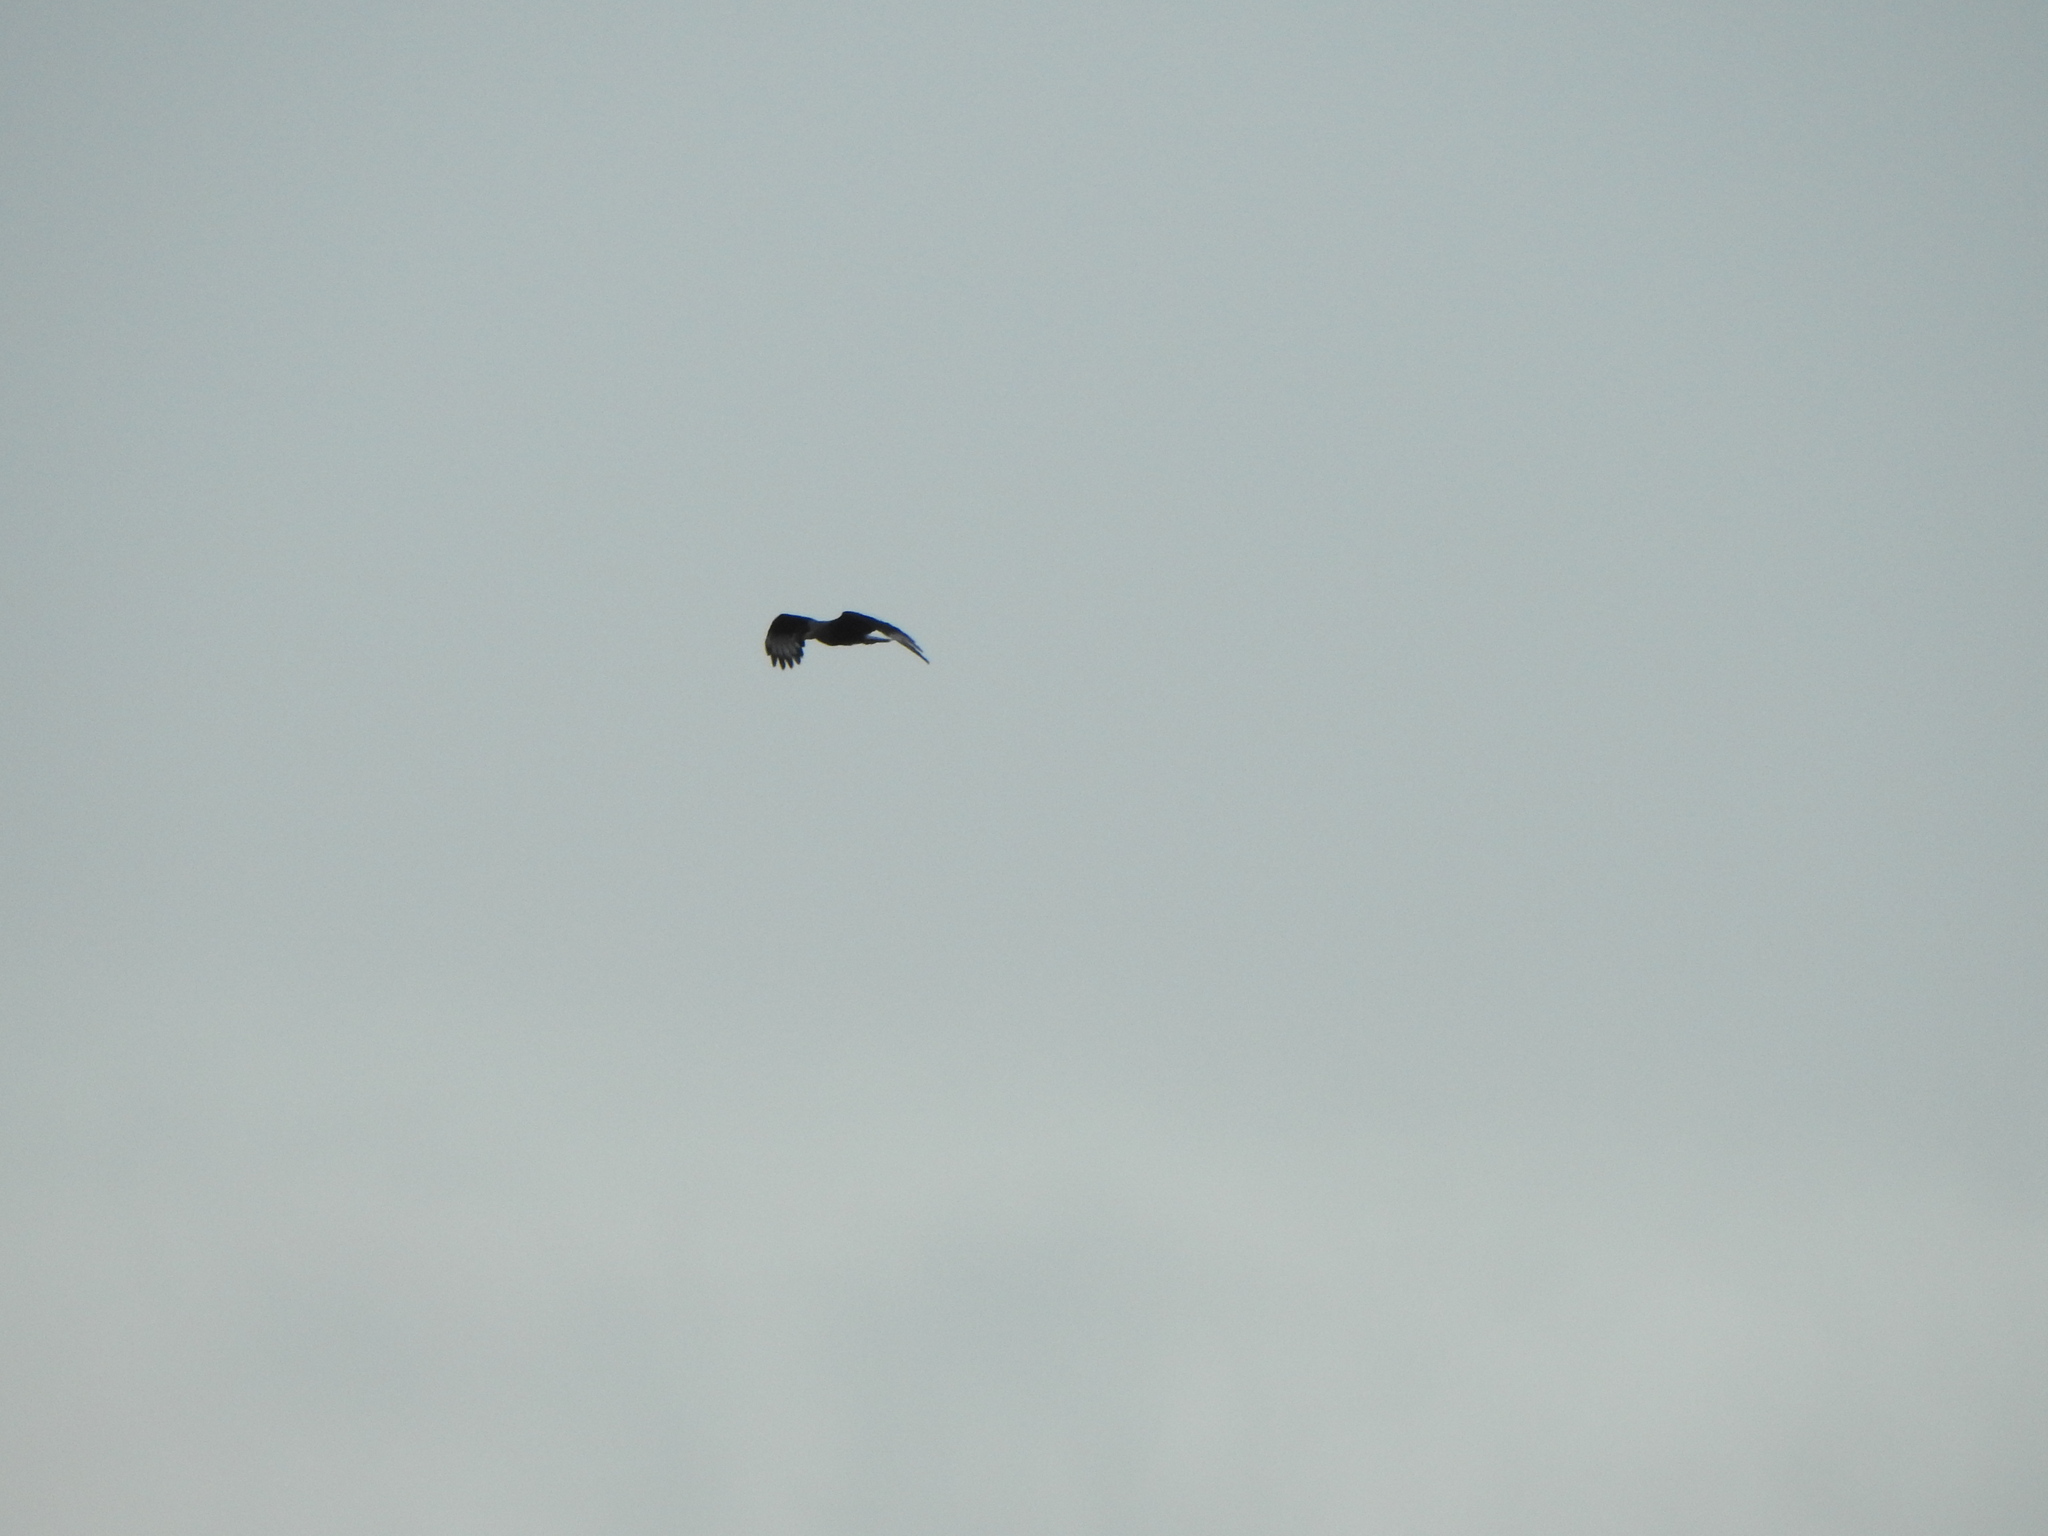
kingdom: Animalia
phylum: Chordata
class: Aves
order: Falconiformes
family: Falconidae
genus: Caracara
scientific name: Caracara plancus
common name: Southern caracara
